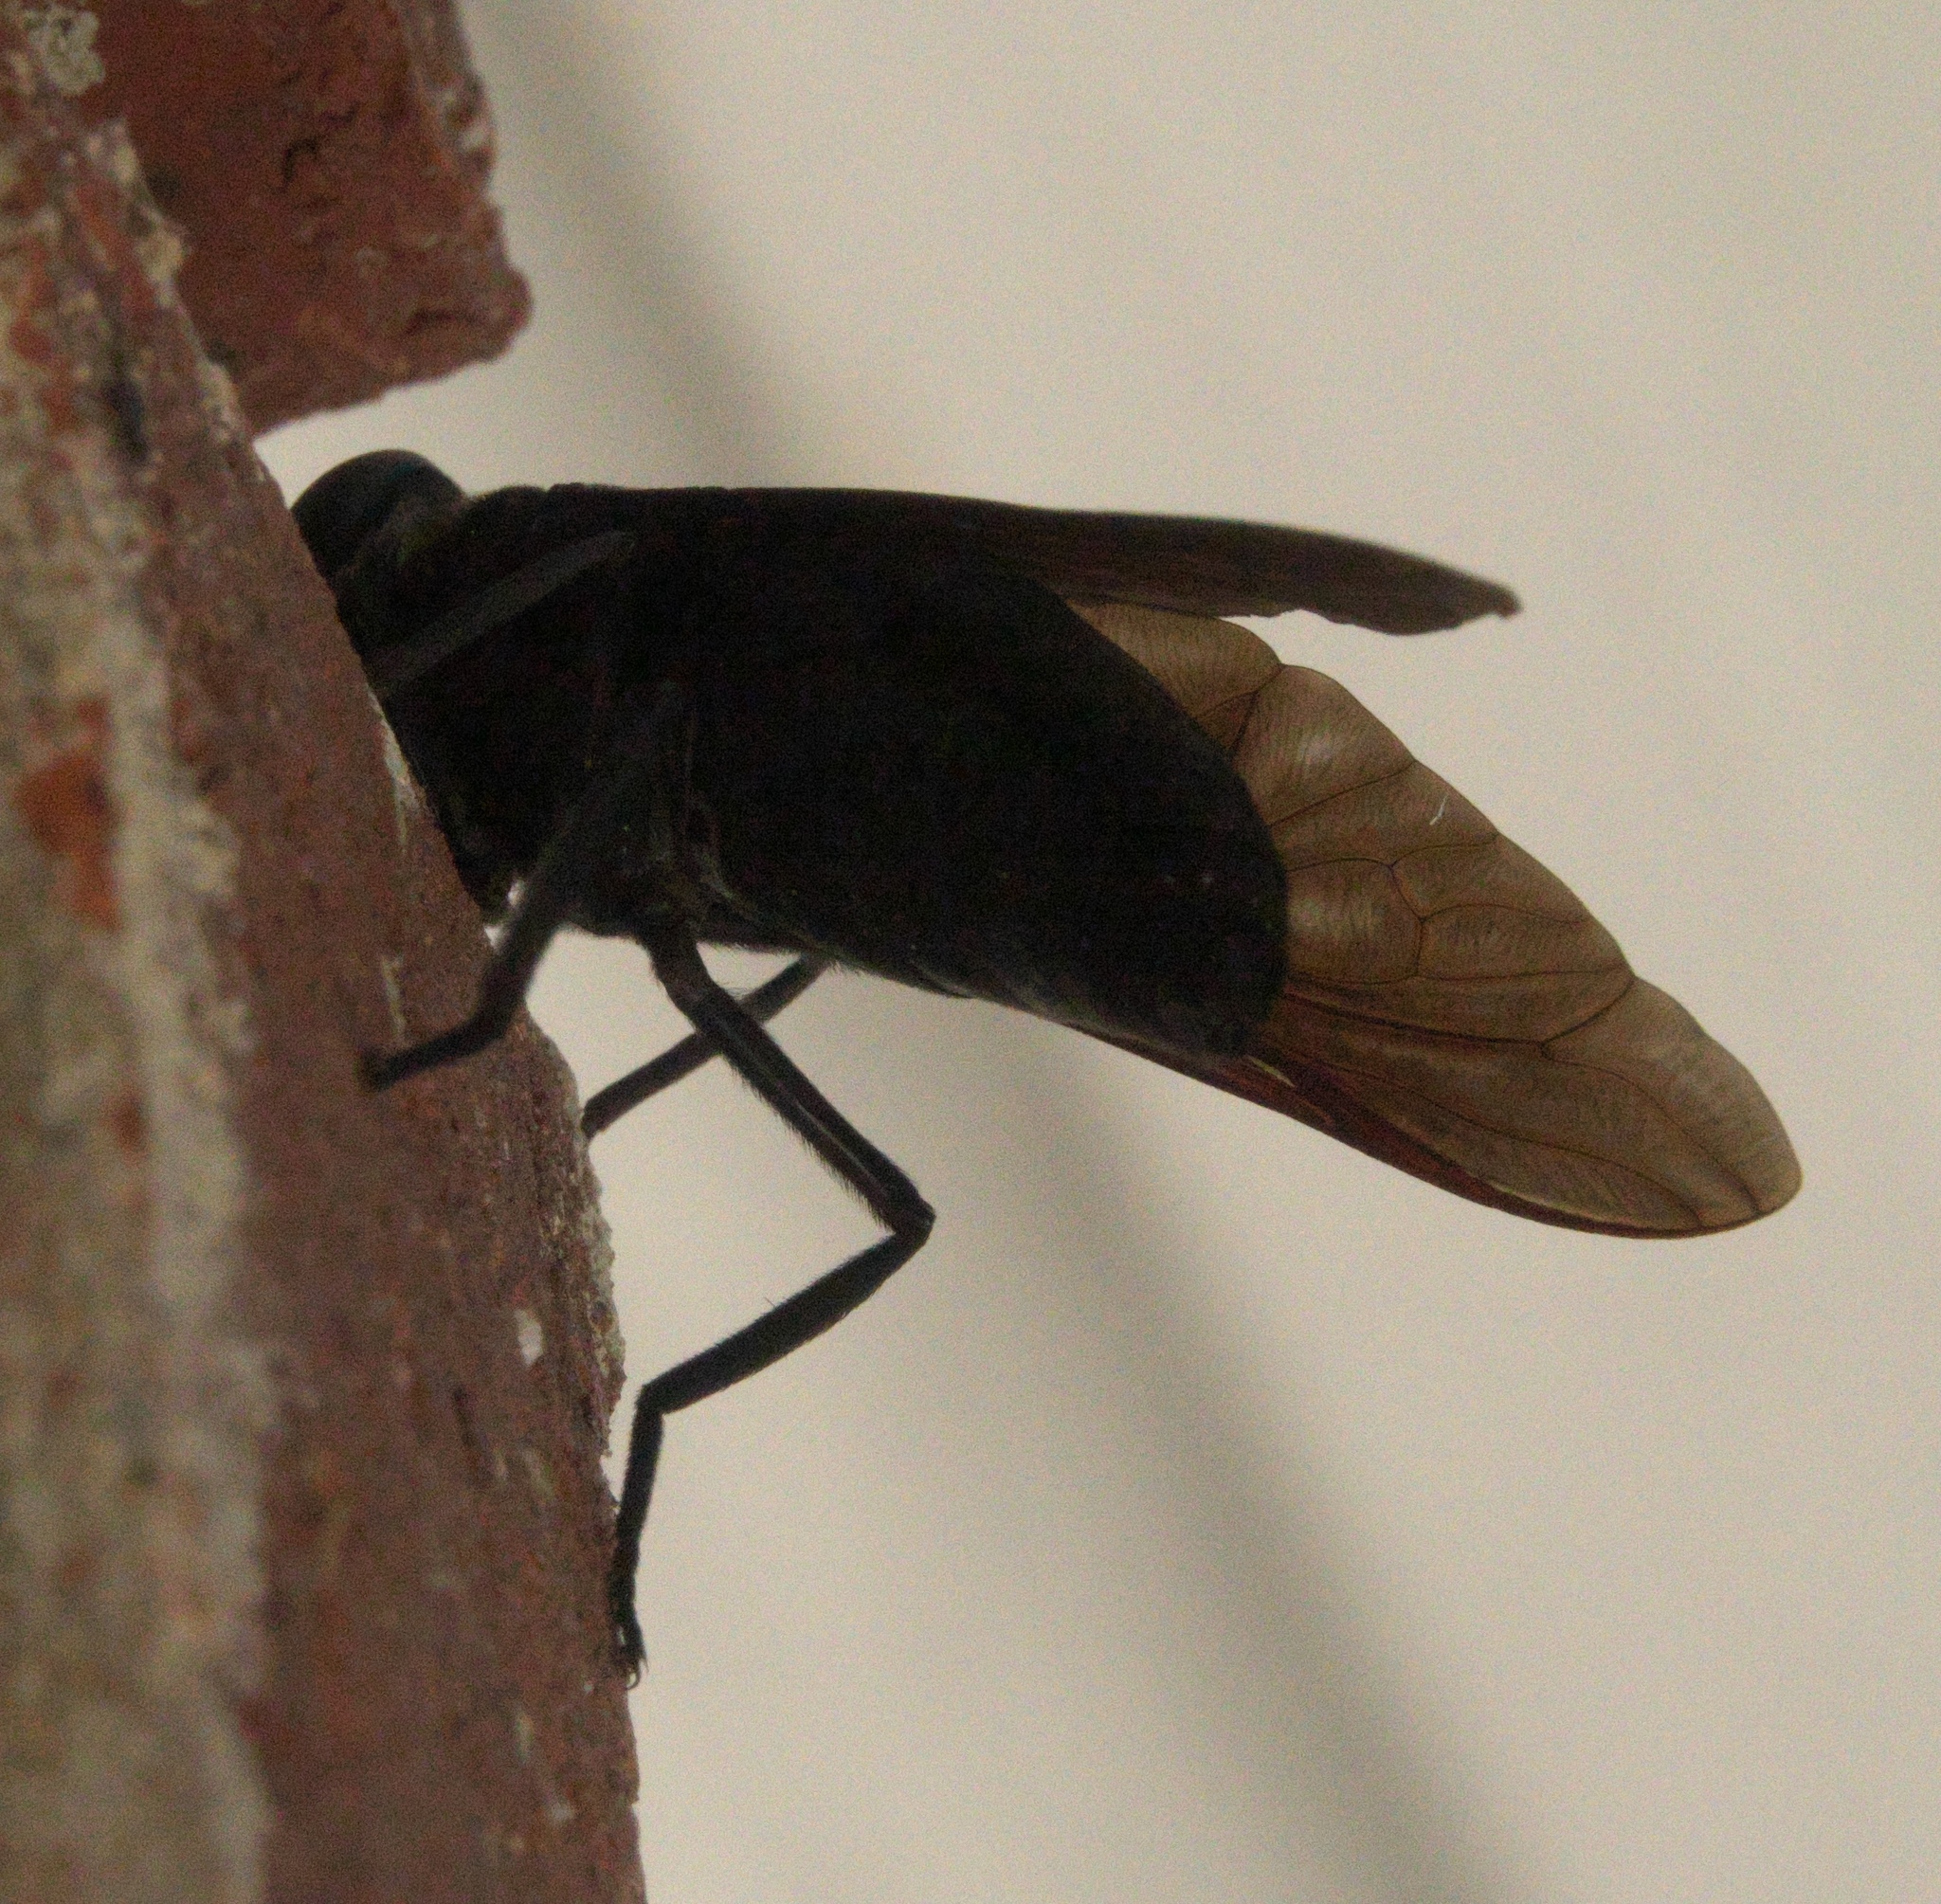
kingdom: Animalia
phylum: Arthropoda
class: Insecta
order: Diptera
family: Tabanidae
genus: Tabanus
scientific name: Tabanus atratus
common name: Black horse fly
